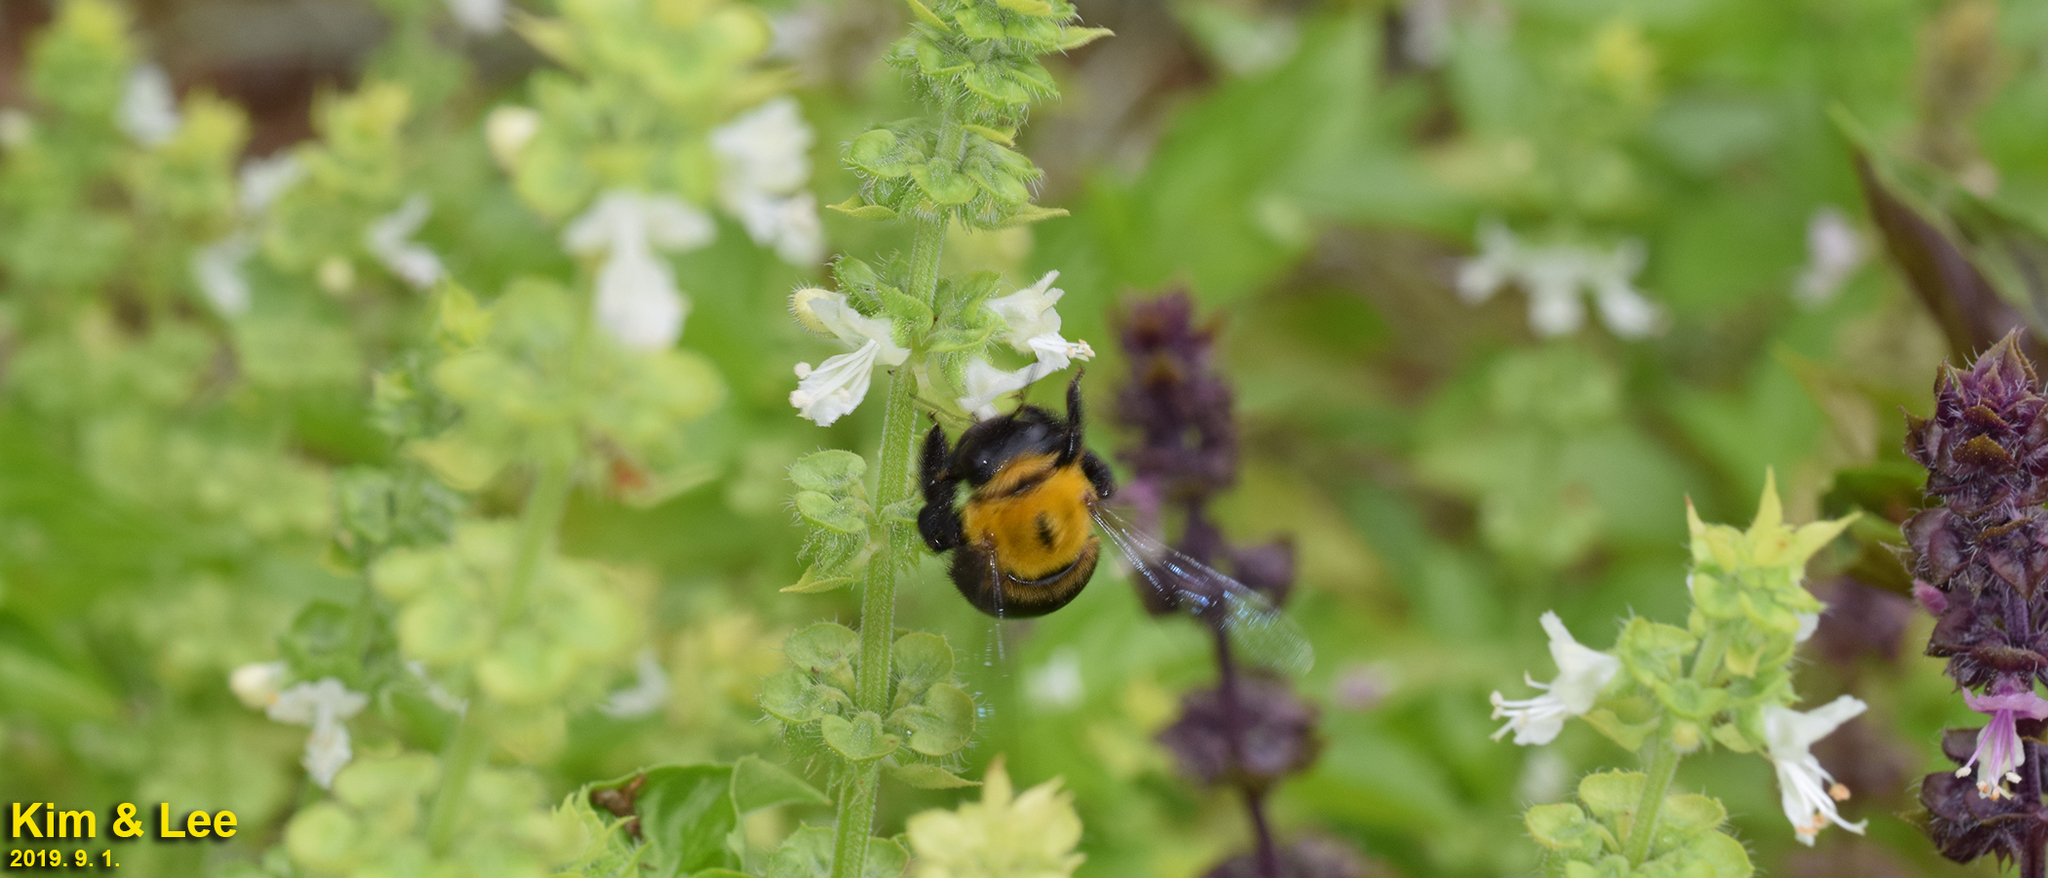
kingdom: Animalia
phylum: Arthropoda
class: Insecta
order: Hymenoptera
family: Apidae
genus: Xylocopa
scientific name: Xylocopa appendiculata
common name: Japanese carpenter bee
